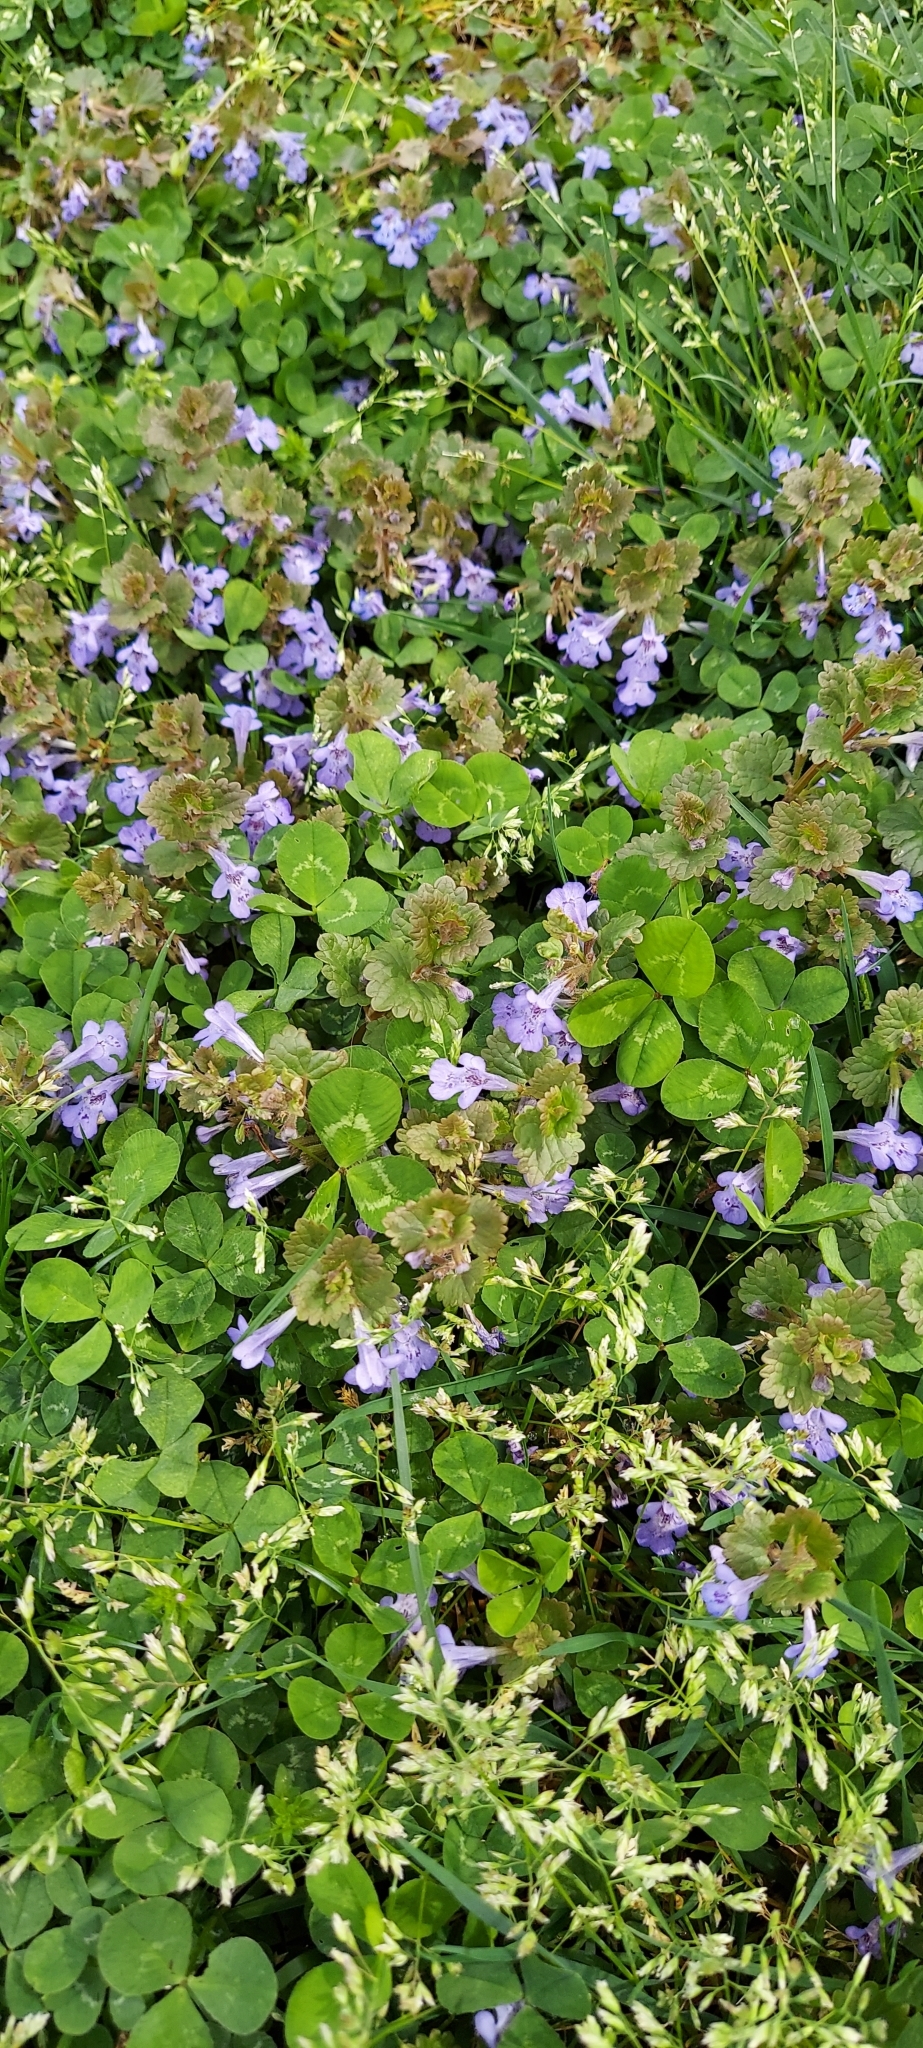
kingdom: Plantae
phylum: Tracheophyta
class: Magnoliopsida
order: Lamiales
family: Lamiaceae
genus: Glechoma
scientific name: Glechoma hederacea
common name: Ground ivy
